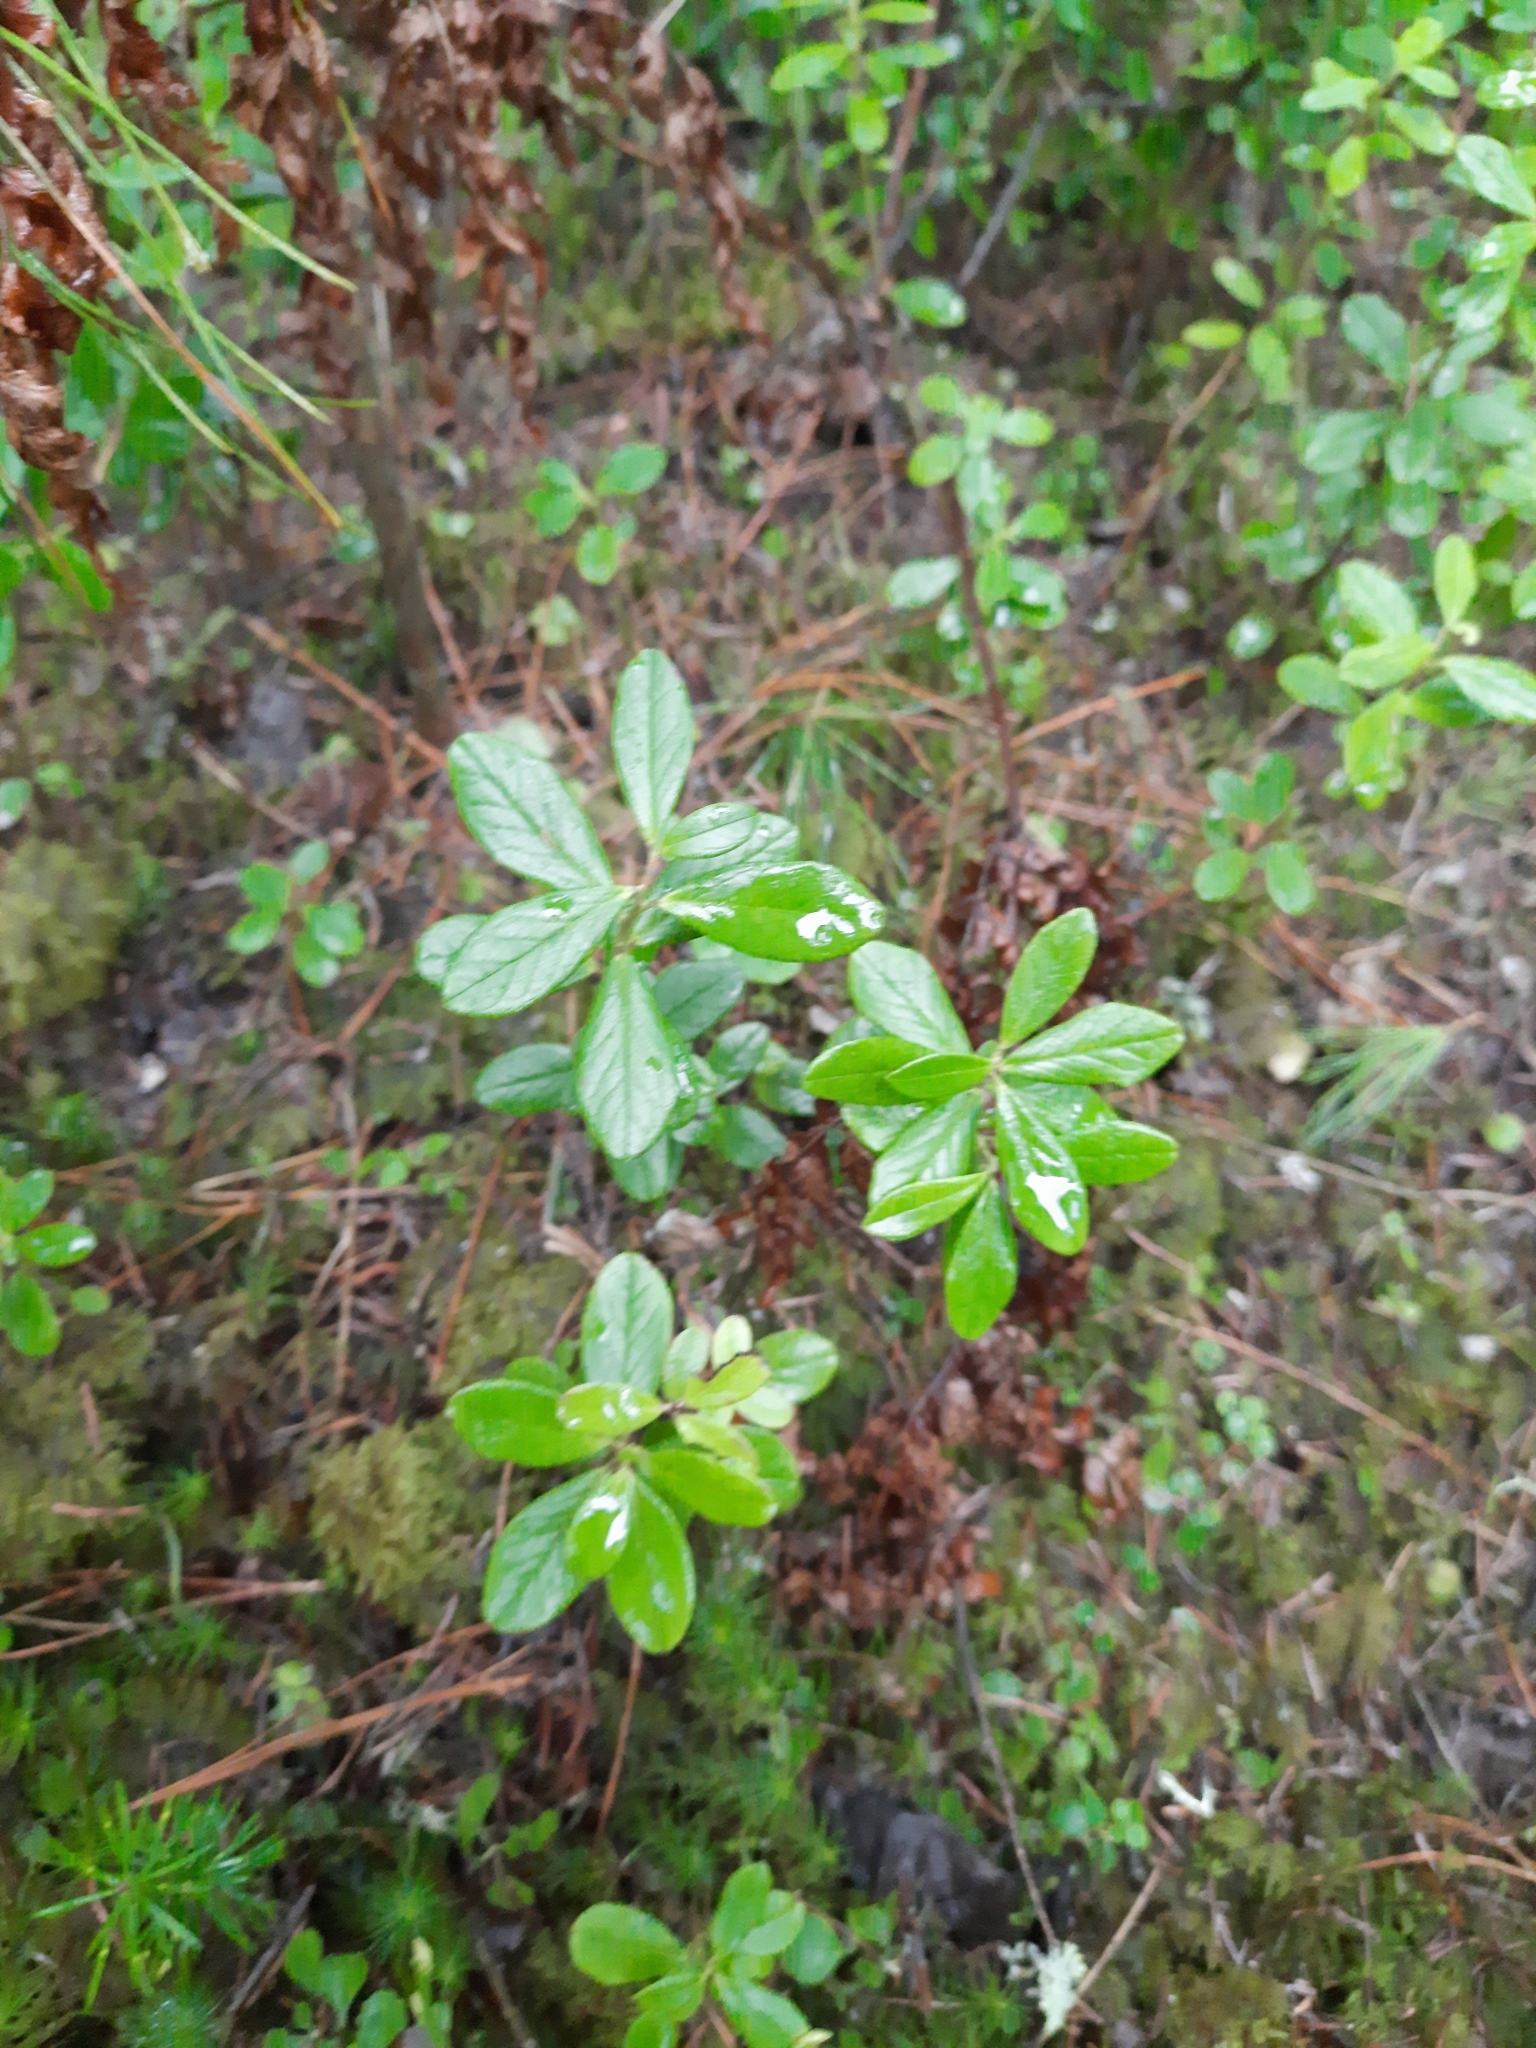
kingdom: Plantae
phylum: Tracheophyta
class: Magnoliopsida
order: Ericales
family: Ericaceae
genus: Vaccinium
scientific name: Vaccinium vitis-idaea
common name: Cowberry
